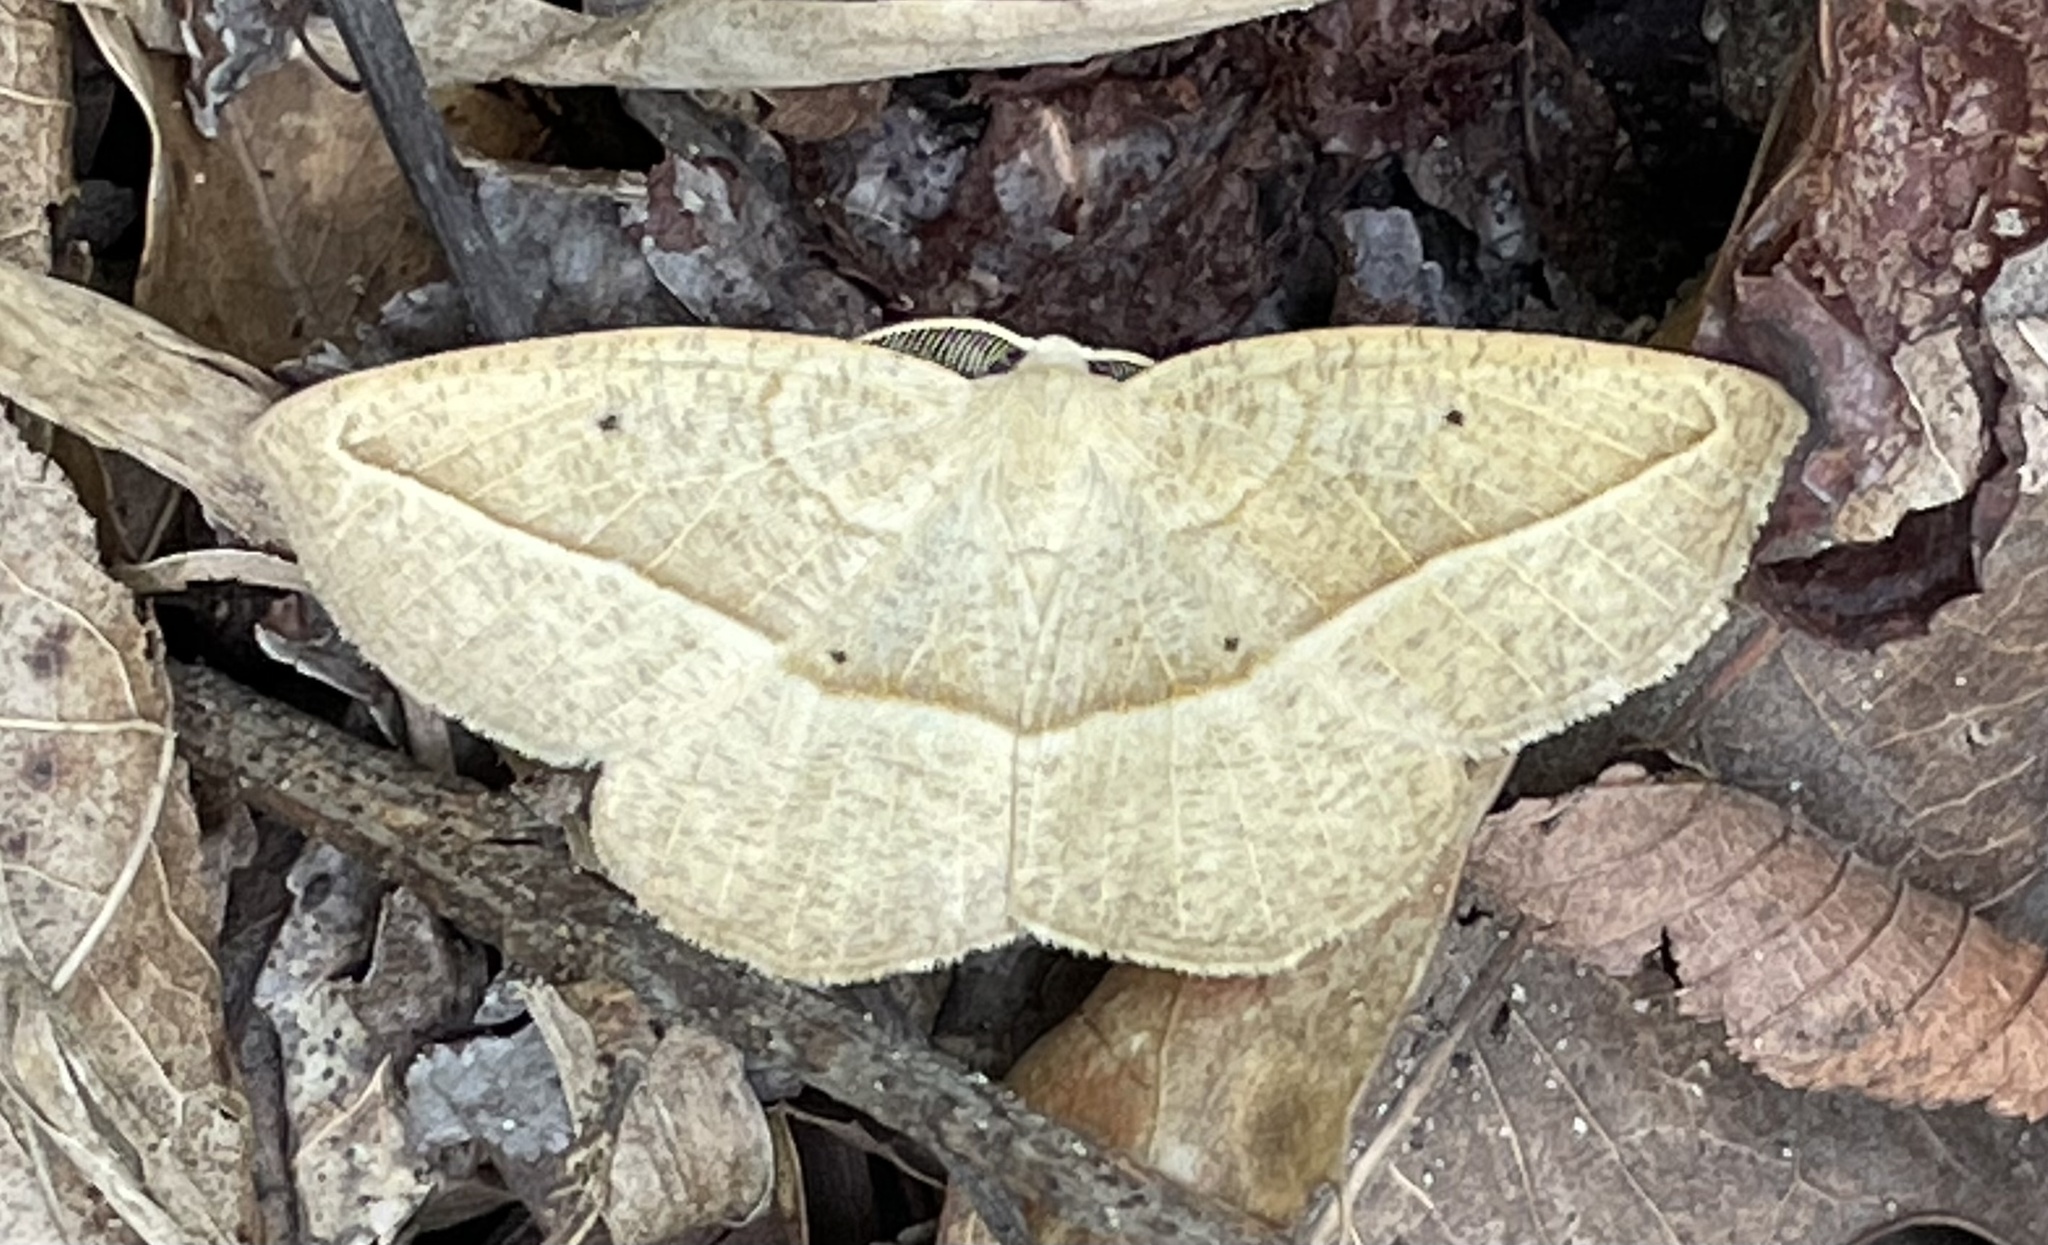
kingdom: Animalia
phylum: Arthropoda
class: Insecta
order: Lepidoptera
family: Geometridae
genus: Eusarca
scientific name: Eusarca confusaria
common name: Confused eusarca
